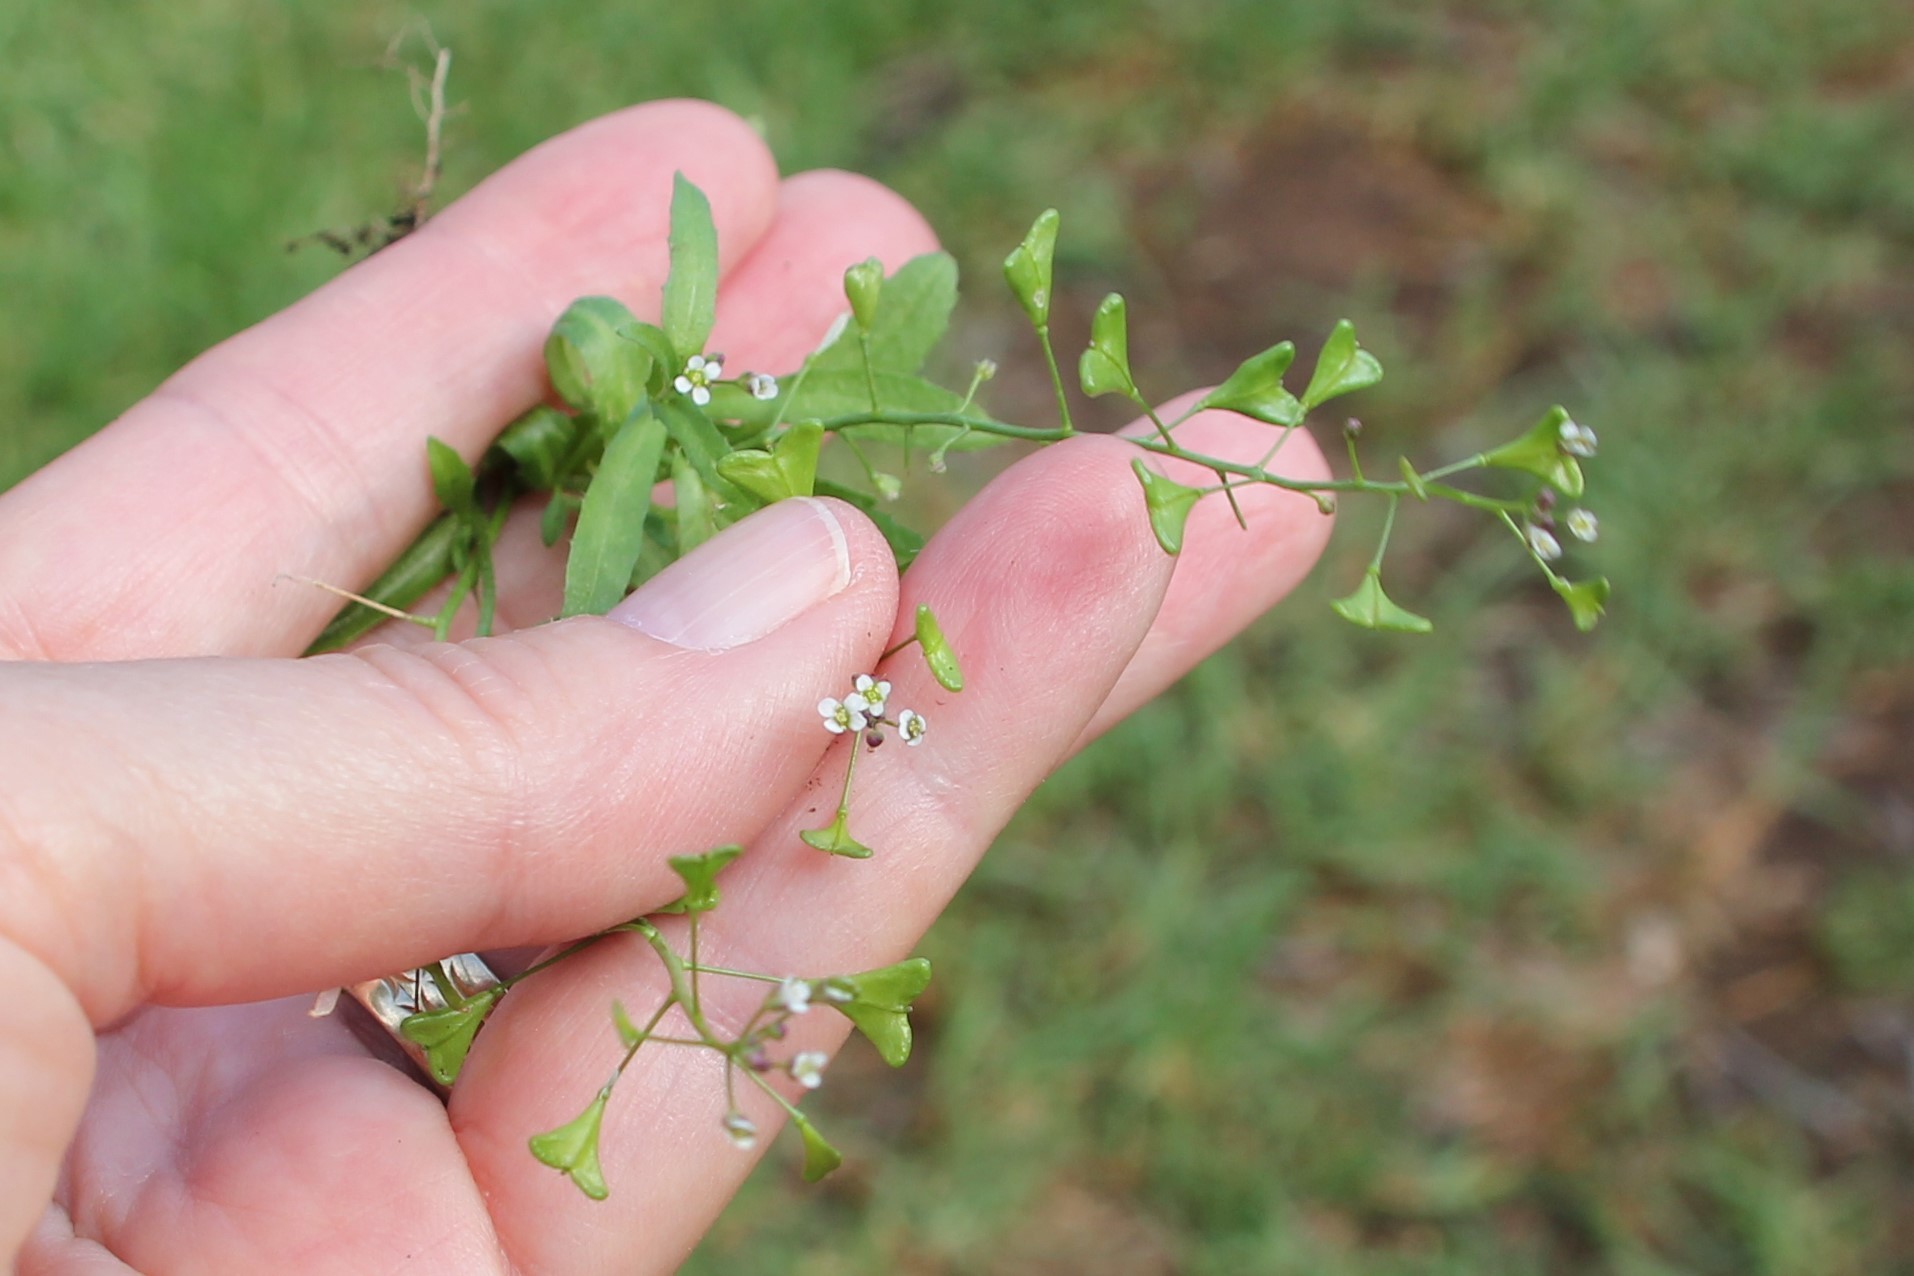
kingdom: Plantae
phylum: Tracheophyta
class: Magnoliopsida
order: Brassicales
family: Brassicaceae
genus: Capsella
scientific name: Capsella bursa-pastoris
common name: Shepherd's purse
